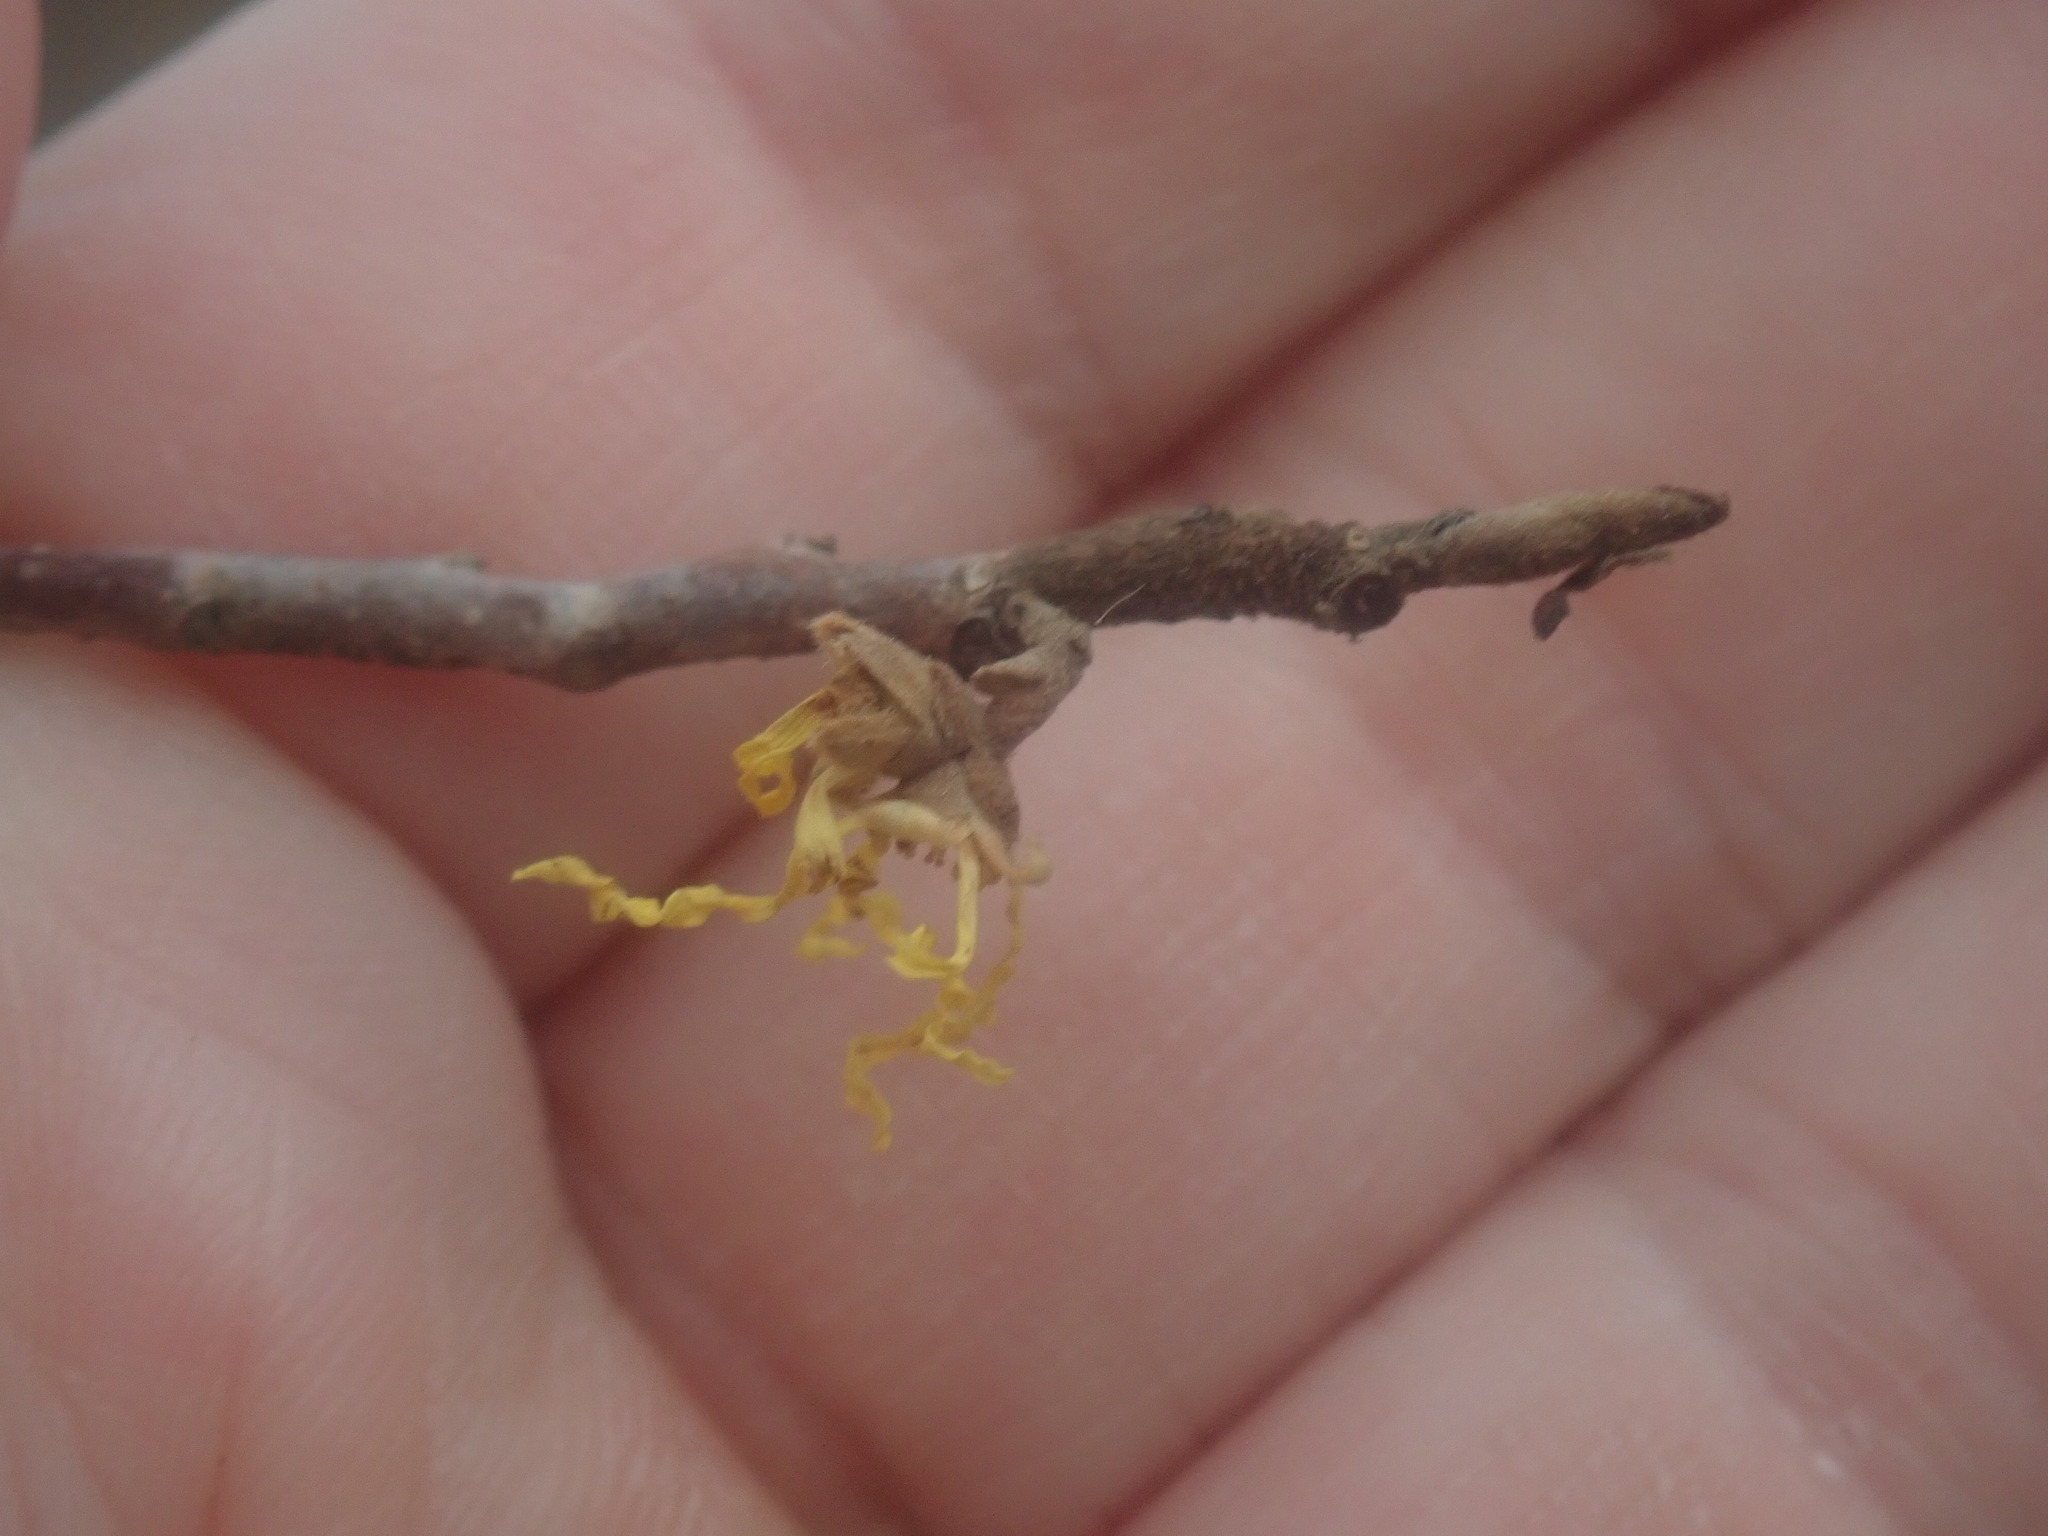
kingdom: Plantae
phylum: Tracheophyta
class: Magnoliopsida
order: Saxifragales
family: Hamamelidaceae
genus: Hamamelis
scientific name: Hamamelis virginiana
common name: Witch-hazel
